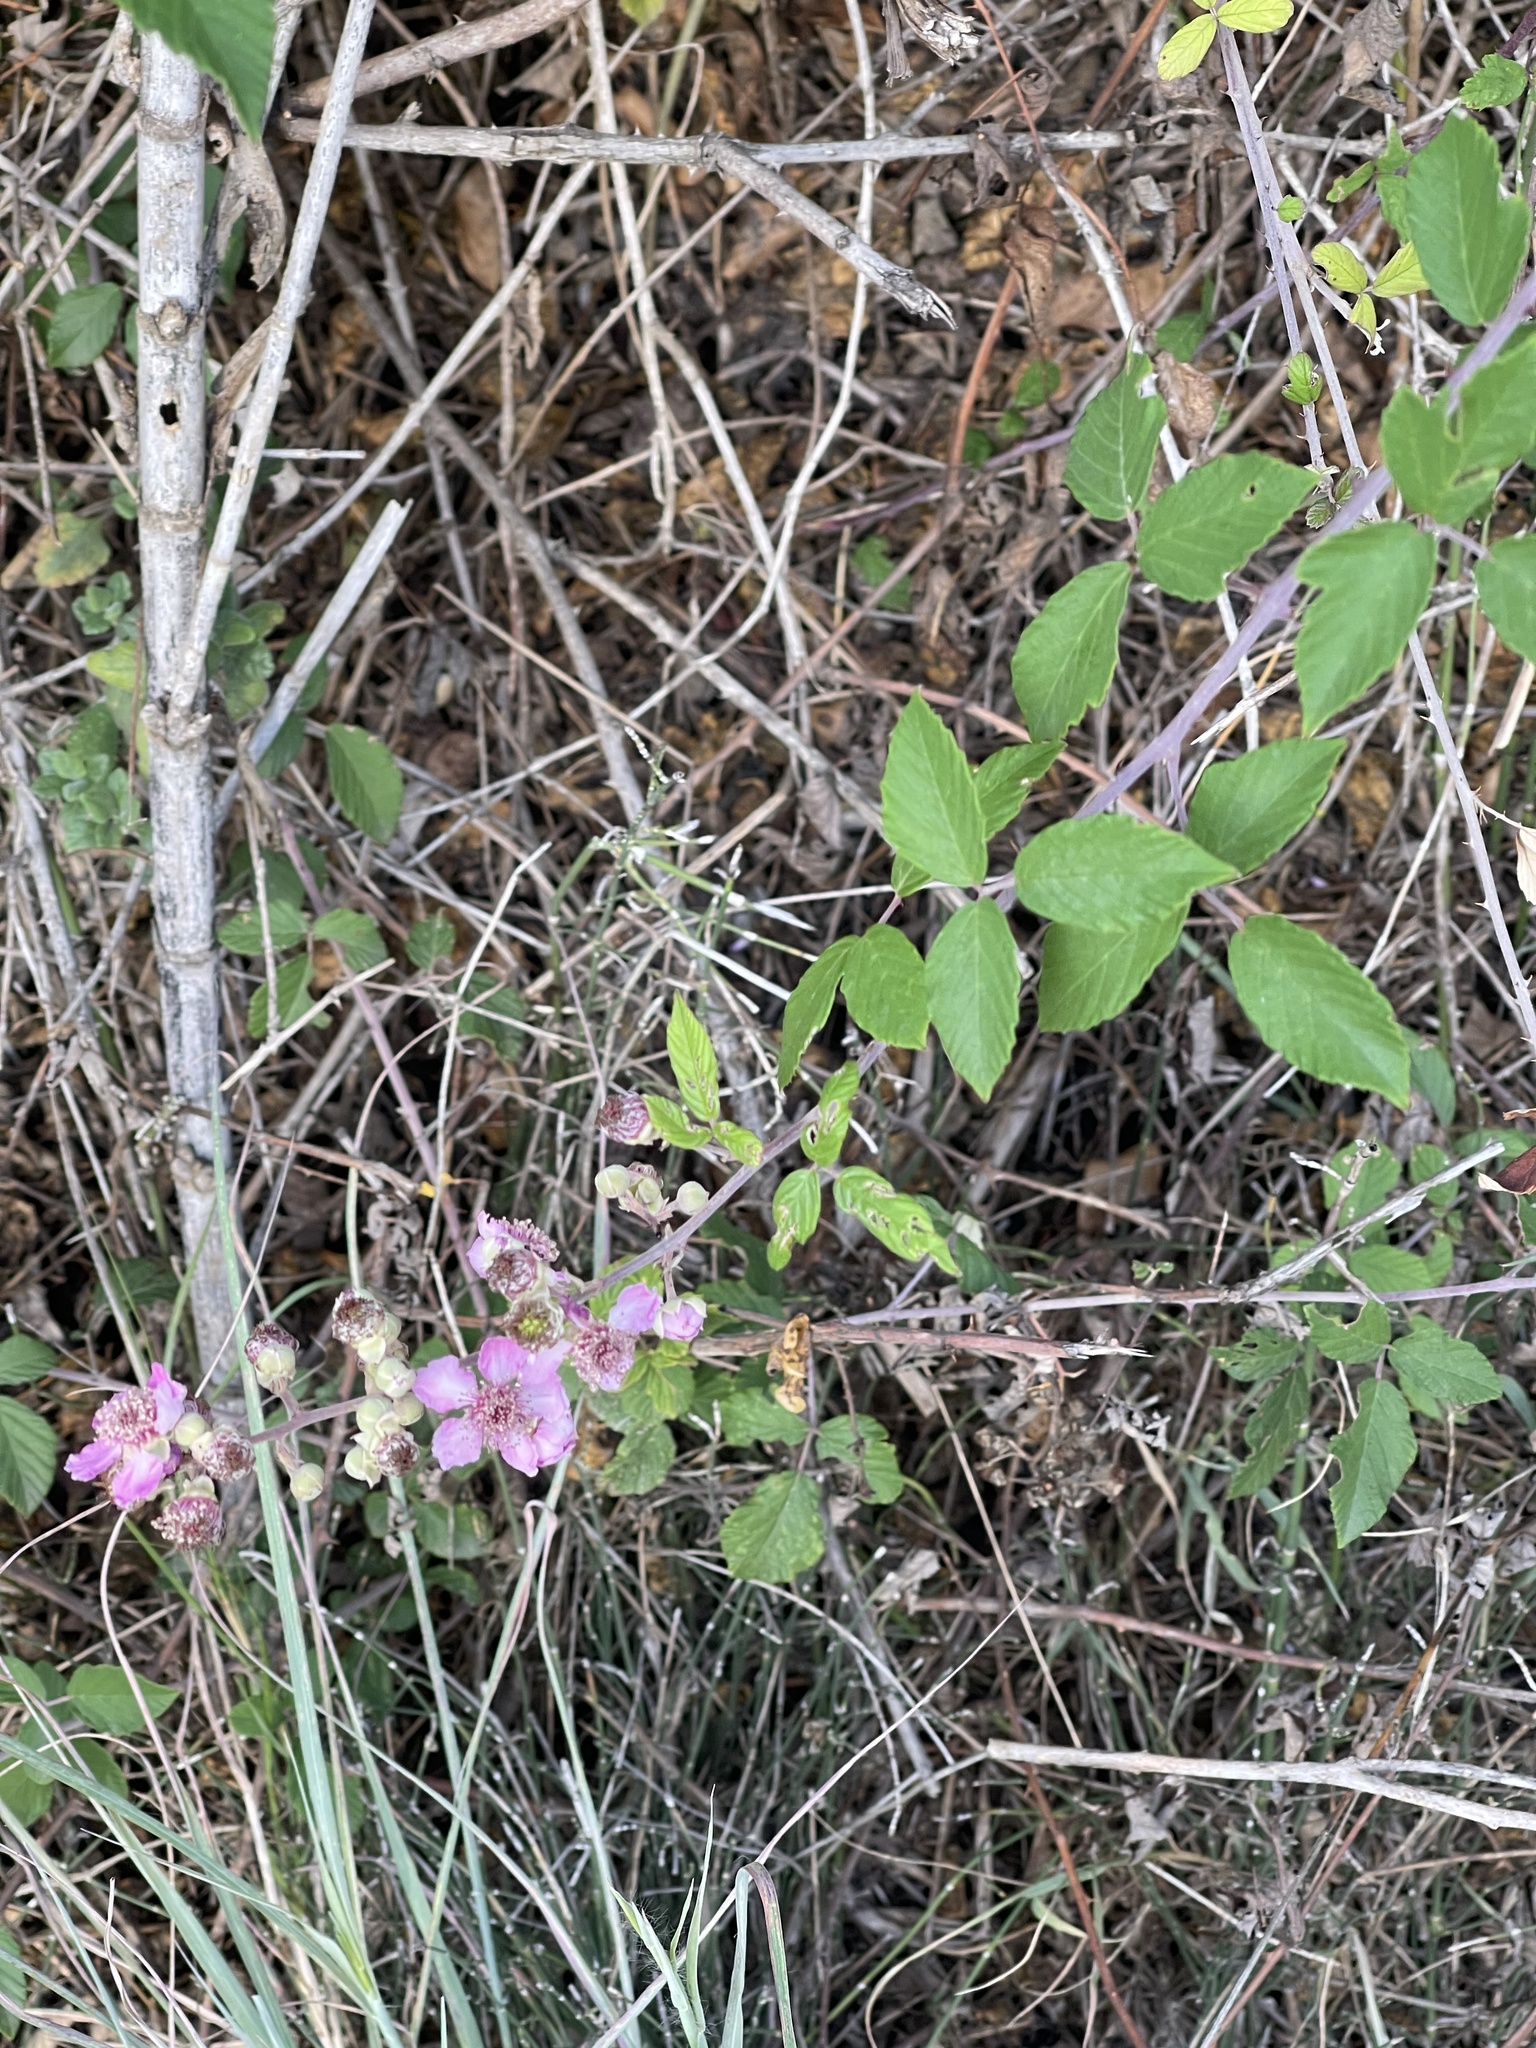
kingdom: Plantae
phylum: Tracheophyta
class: Magnoliopsida
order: Rosales
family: Rosaceae
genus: Rubus
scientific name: Rubus sanctus
